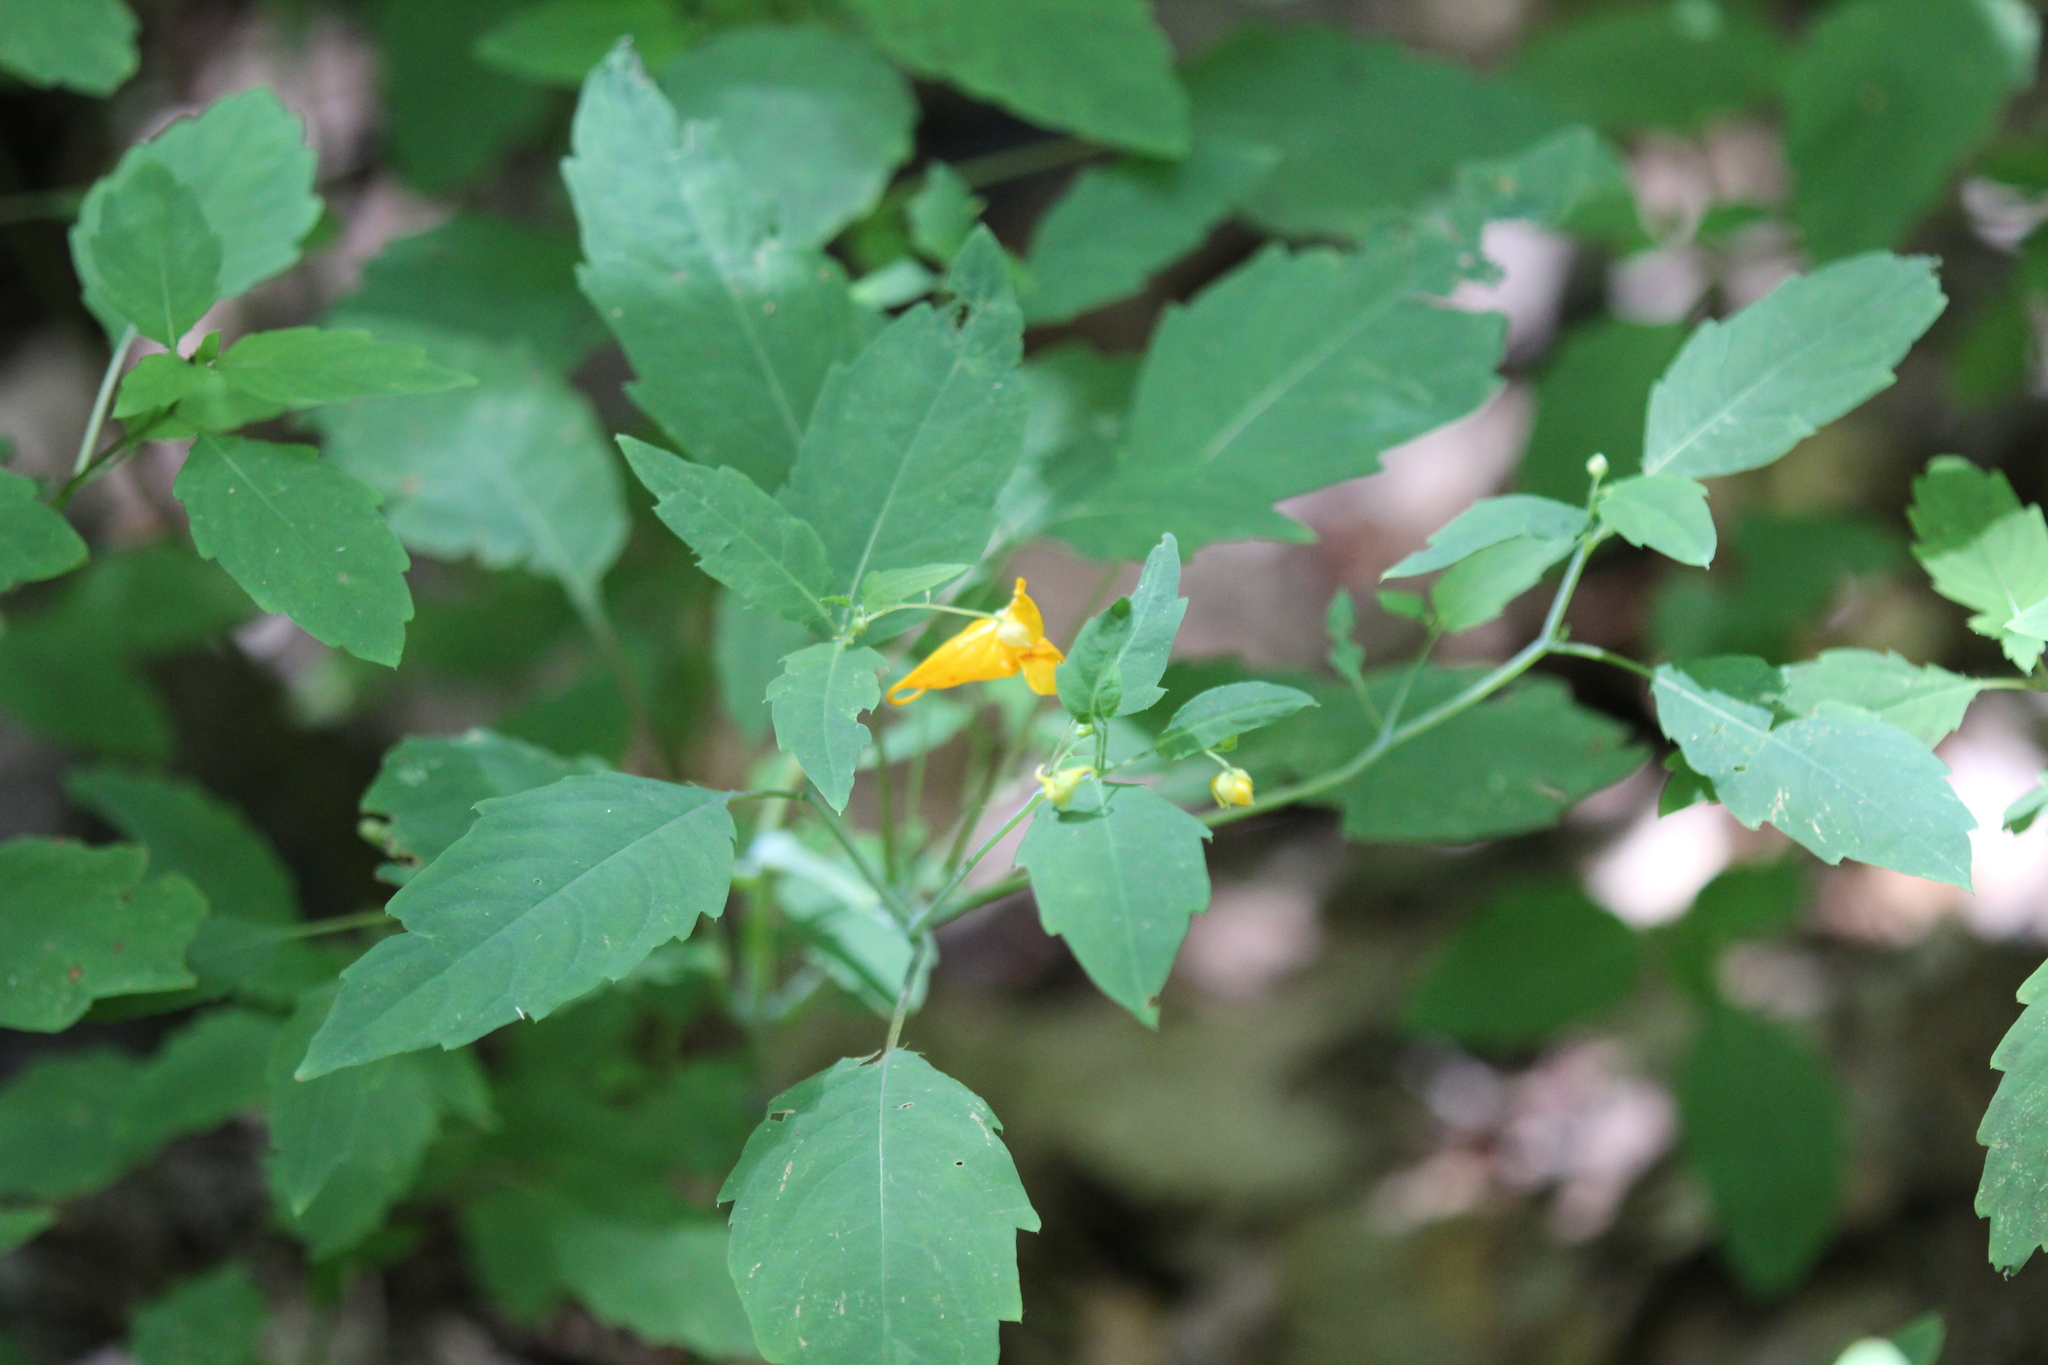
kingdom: Plantae
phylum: Tracheophyta
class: Magnoliopsida
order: Ericales
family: Balsaminaceae
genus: Impatiens
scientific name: Impatiens capensis
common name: Orange balsam
